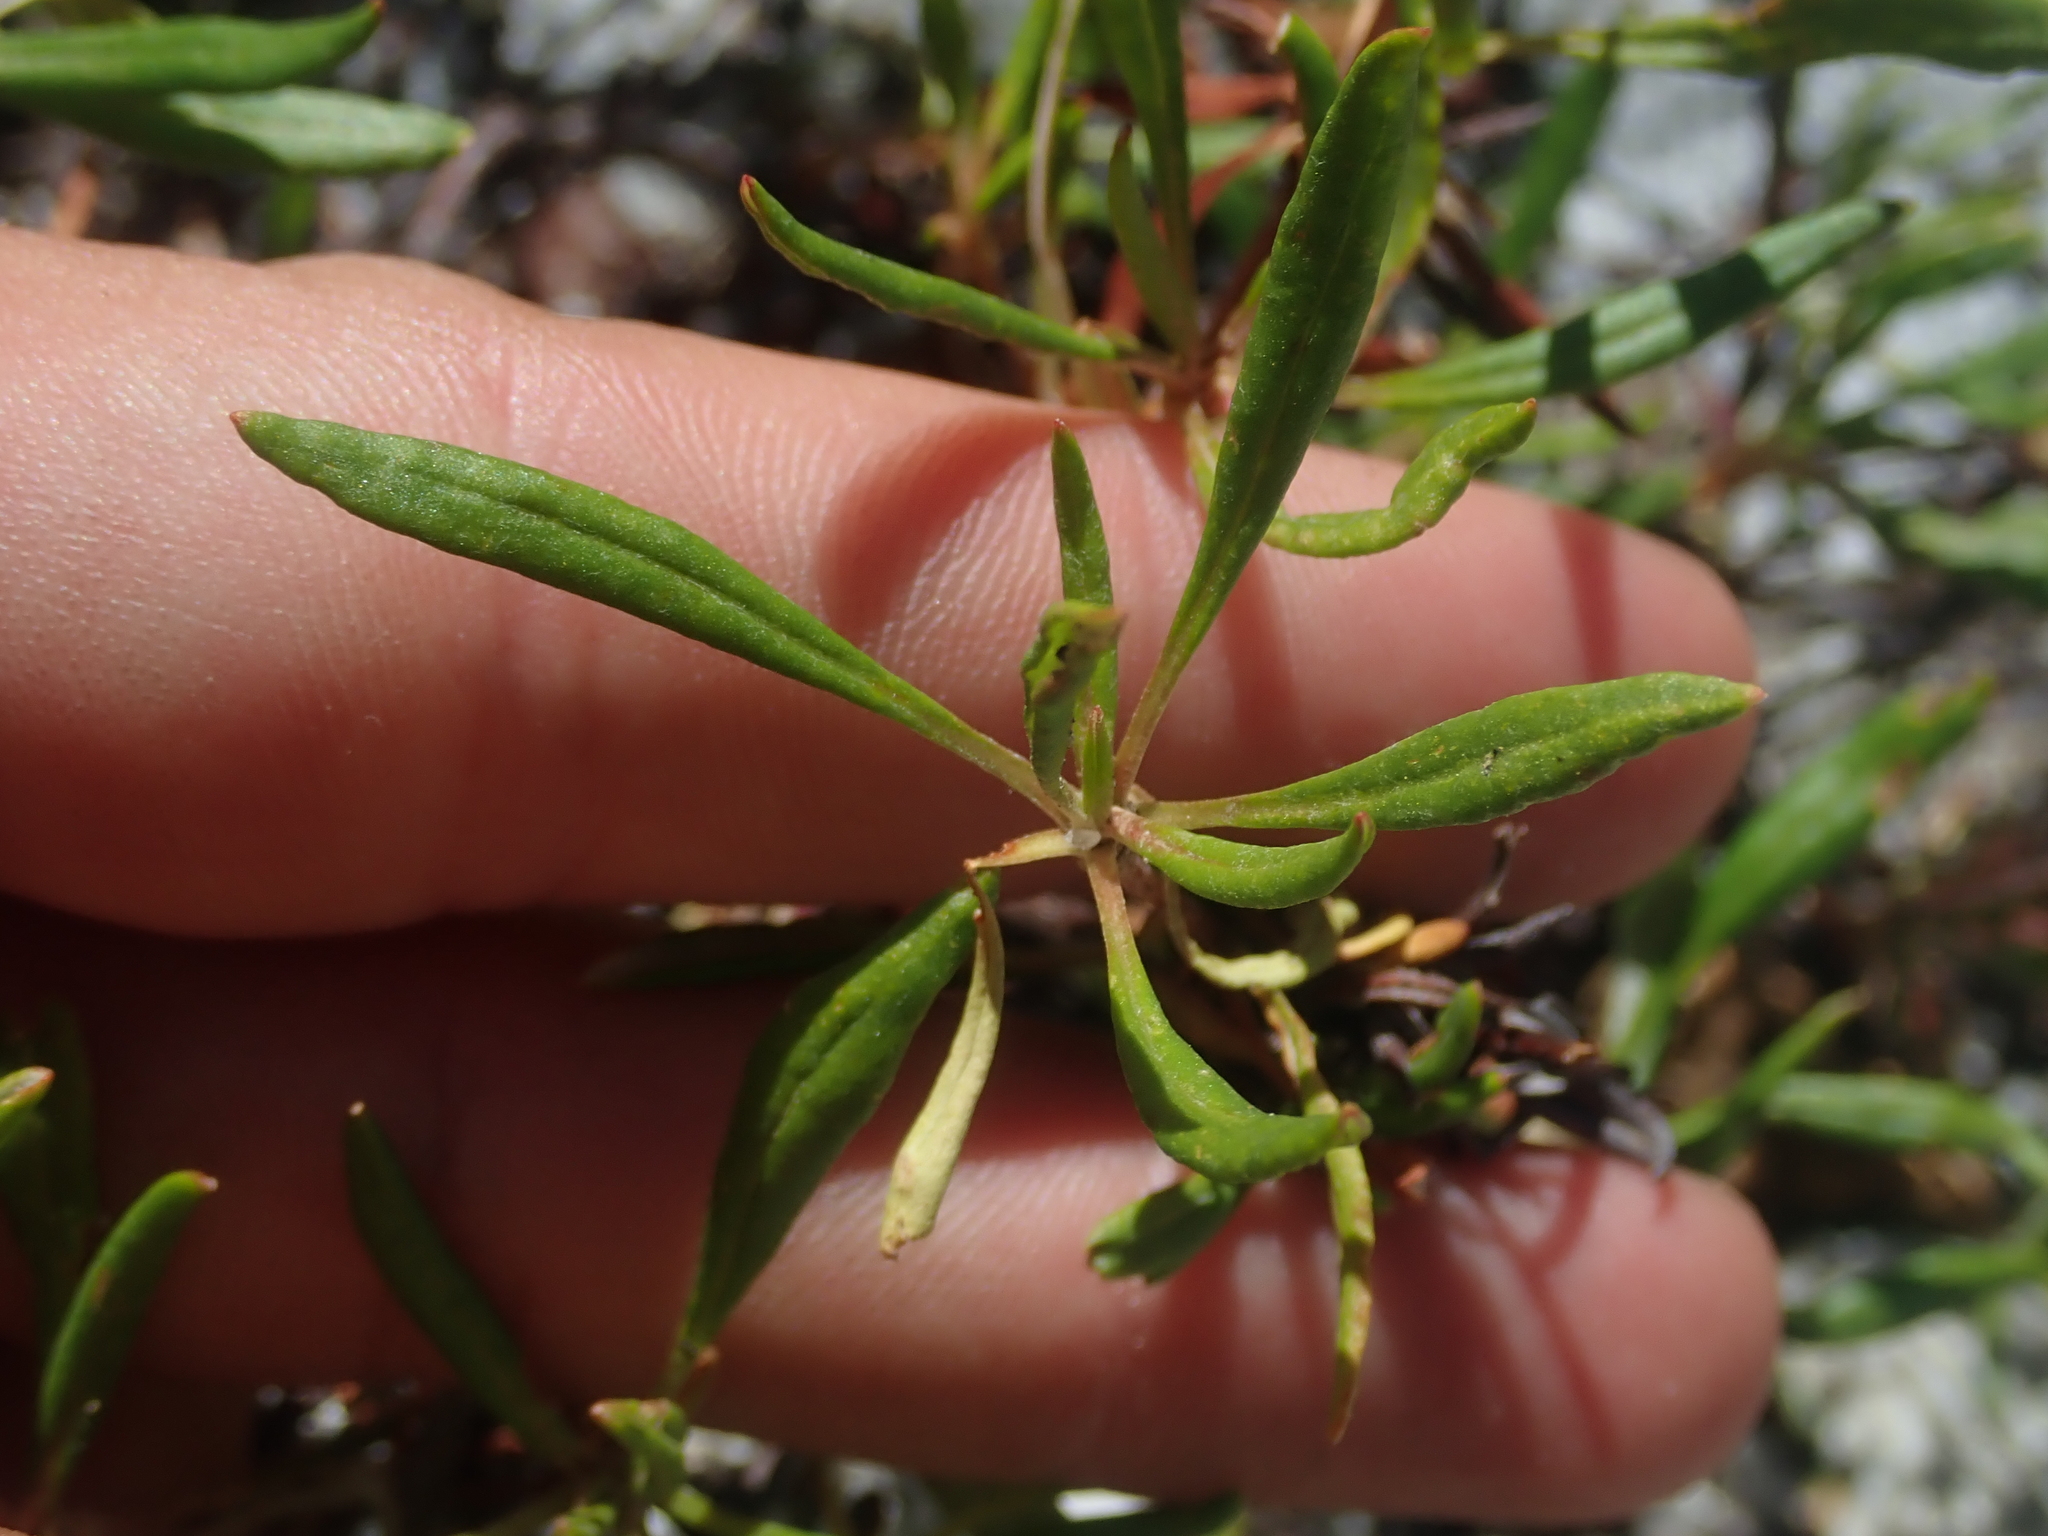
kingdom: Plantae
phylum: Tracheophyta
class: Magnoliopsida
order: Caryophyllales
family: Polygonaceae
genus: Eriogonum
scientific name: Eriogonum heracleoides
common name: Wyeth's buckwheat
